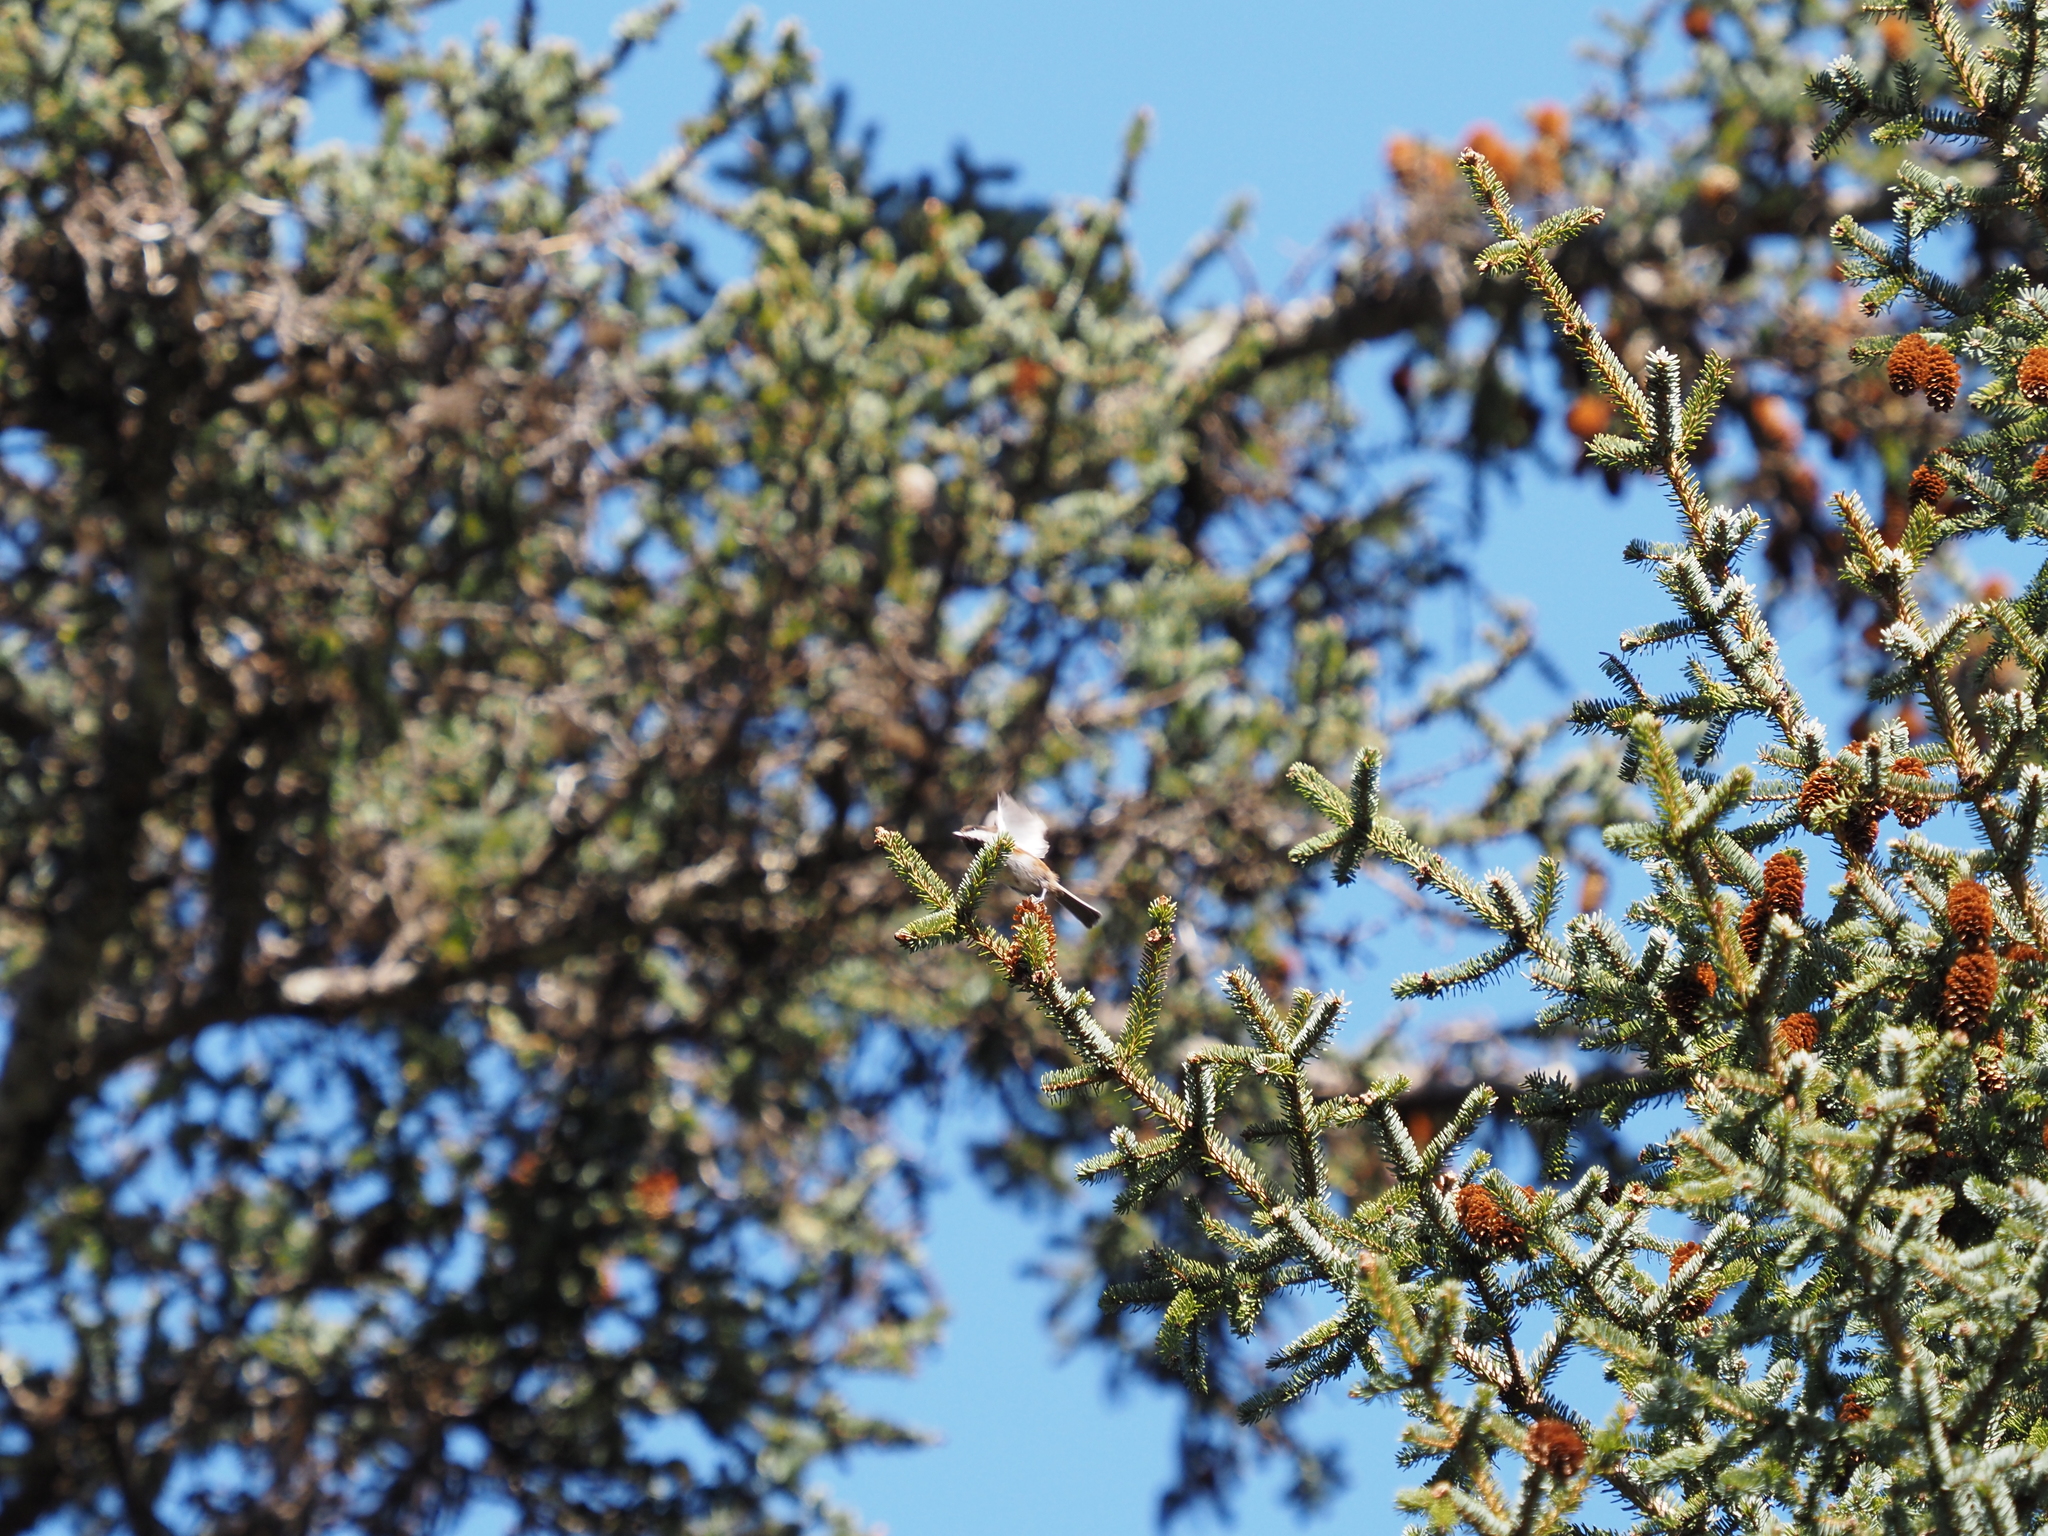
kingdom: Animalia
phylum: Chordata
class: Aves
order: Passeriformes
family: Paridae
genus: Poecile
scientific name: Poecile rufescens
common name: Chestnut-backed chickadee
